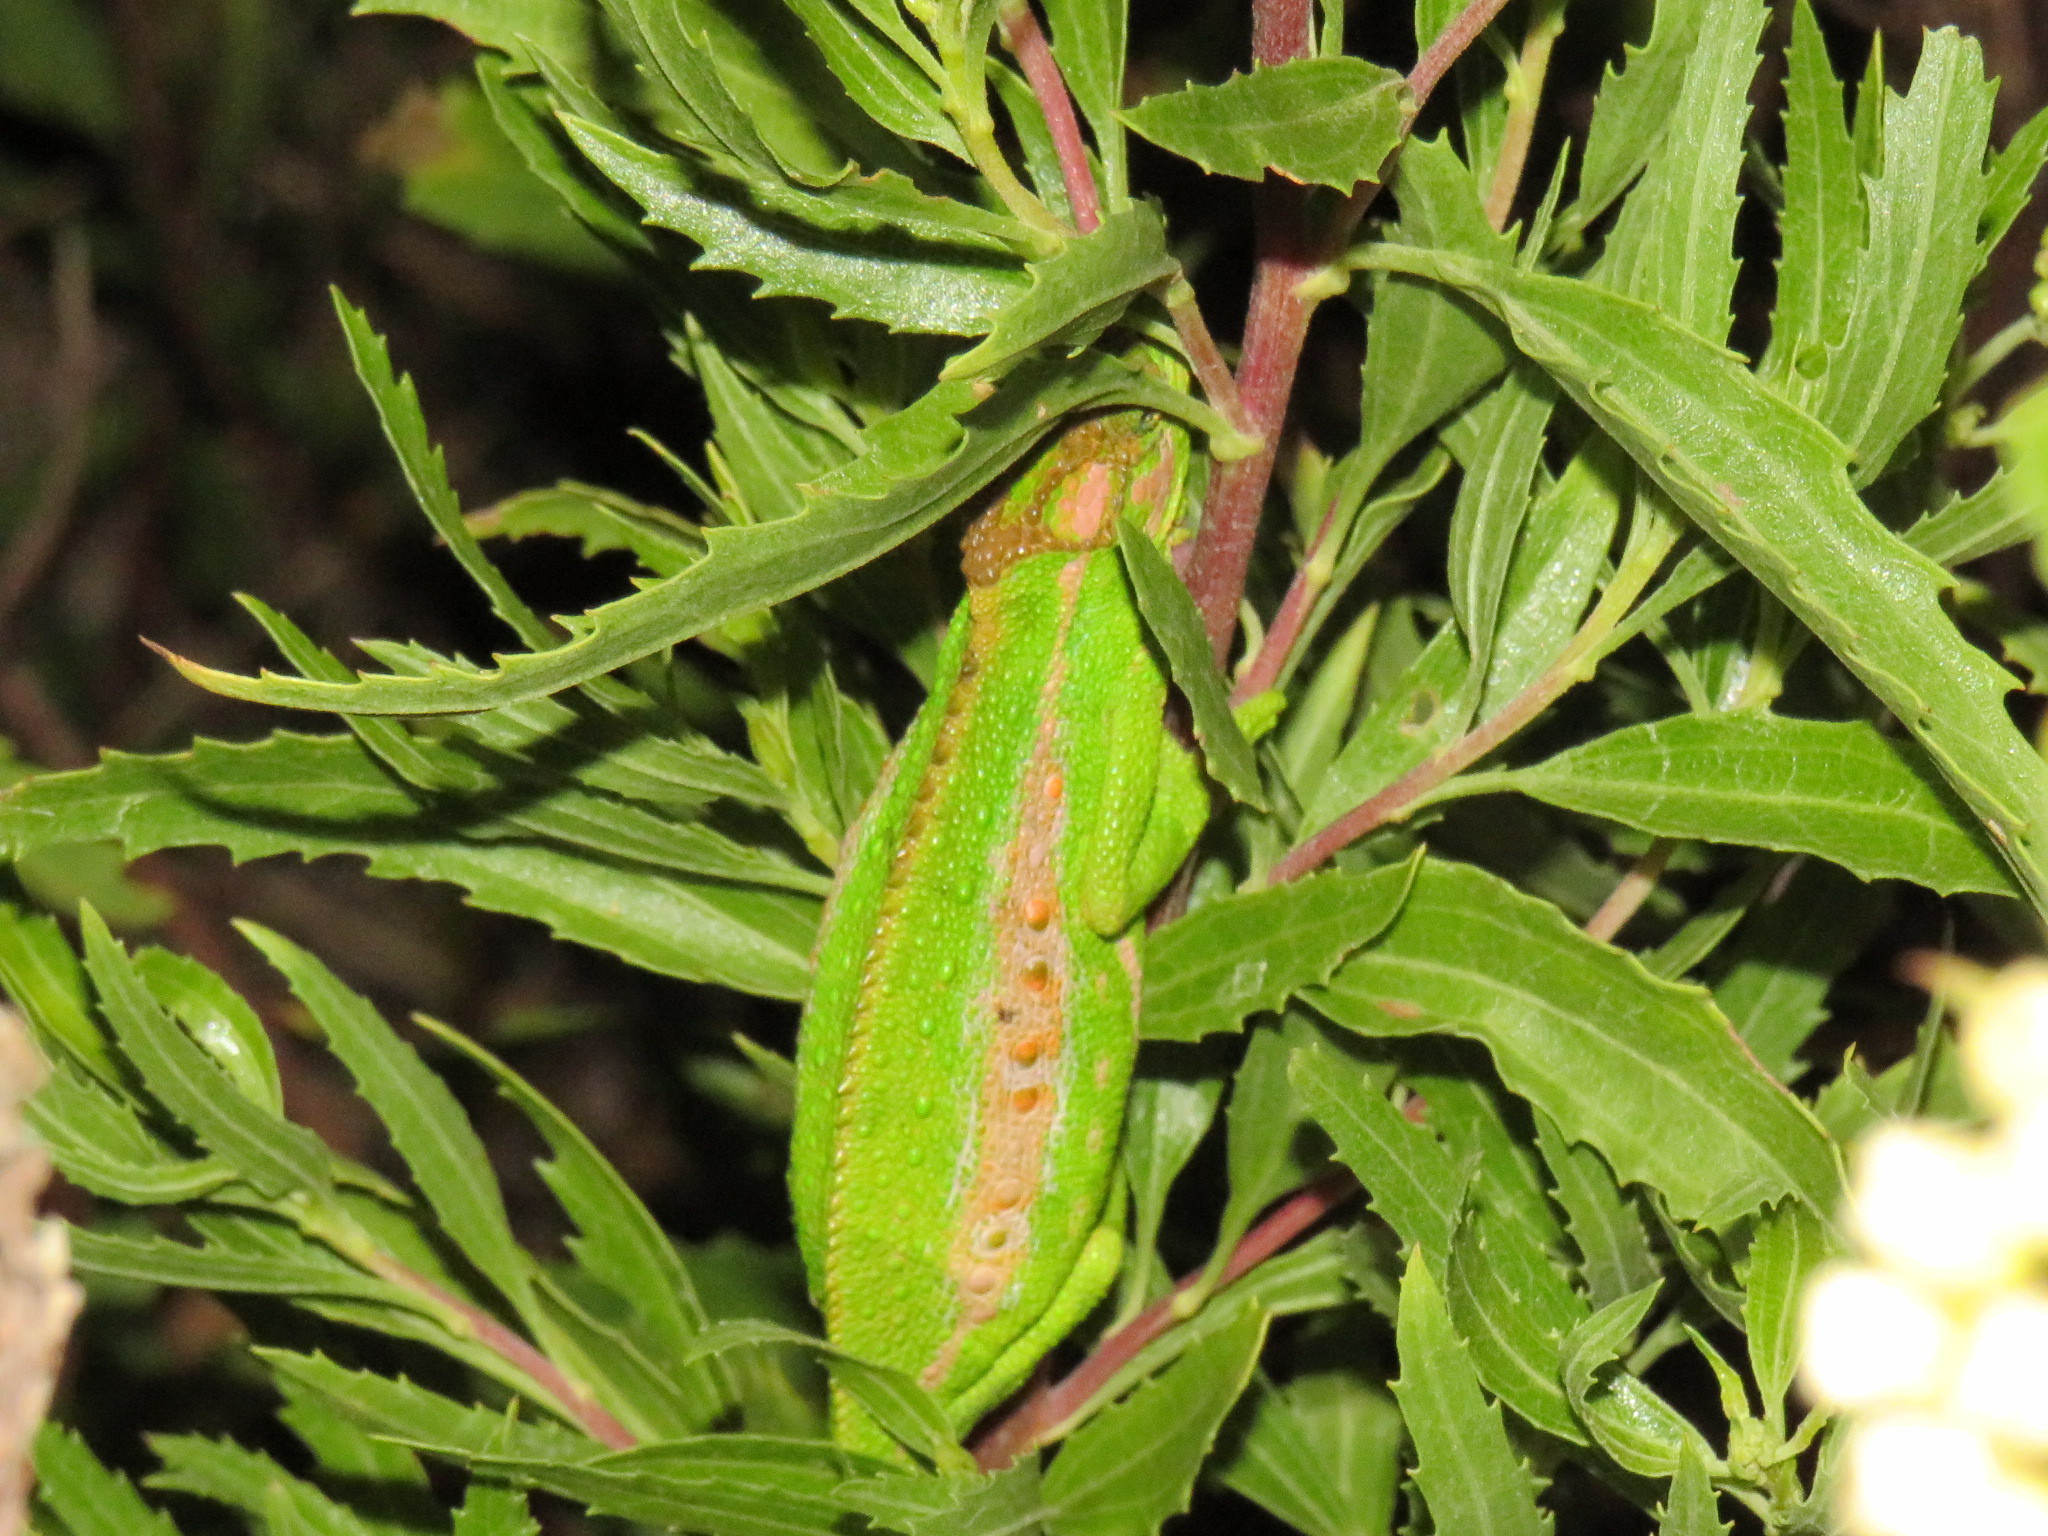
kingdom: Animalia
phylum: Chordata
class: Squamata
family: Chamaeleonidae
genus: Bradypodion
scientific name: Bradypodion pumilum
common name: Cape dwarf chameleon
